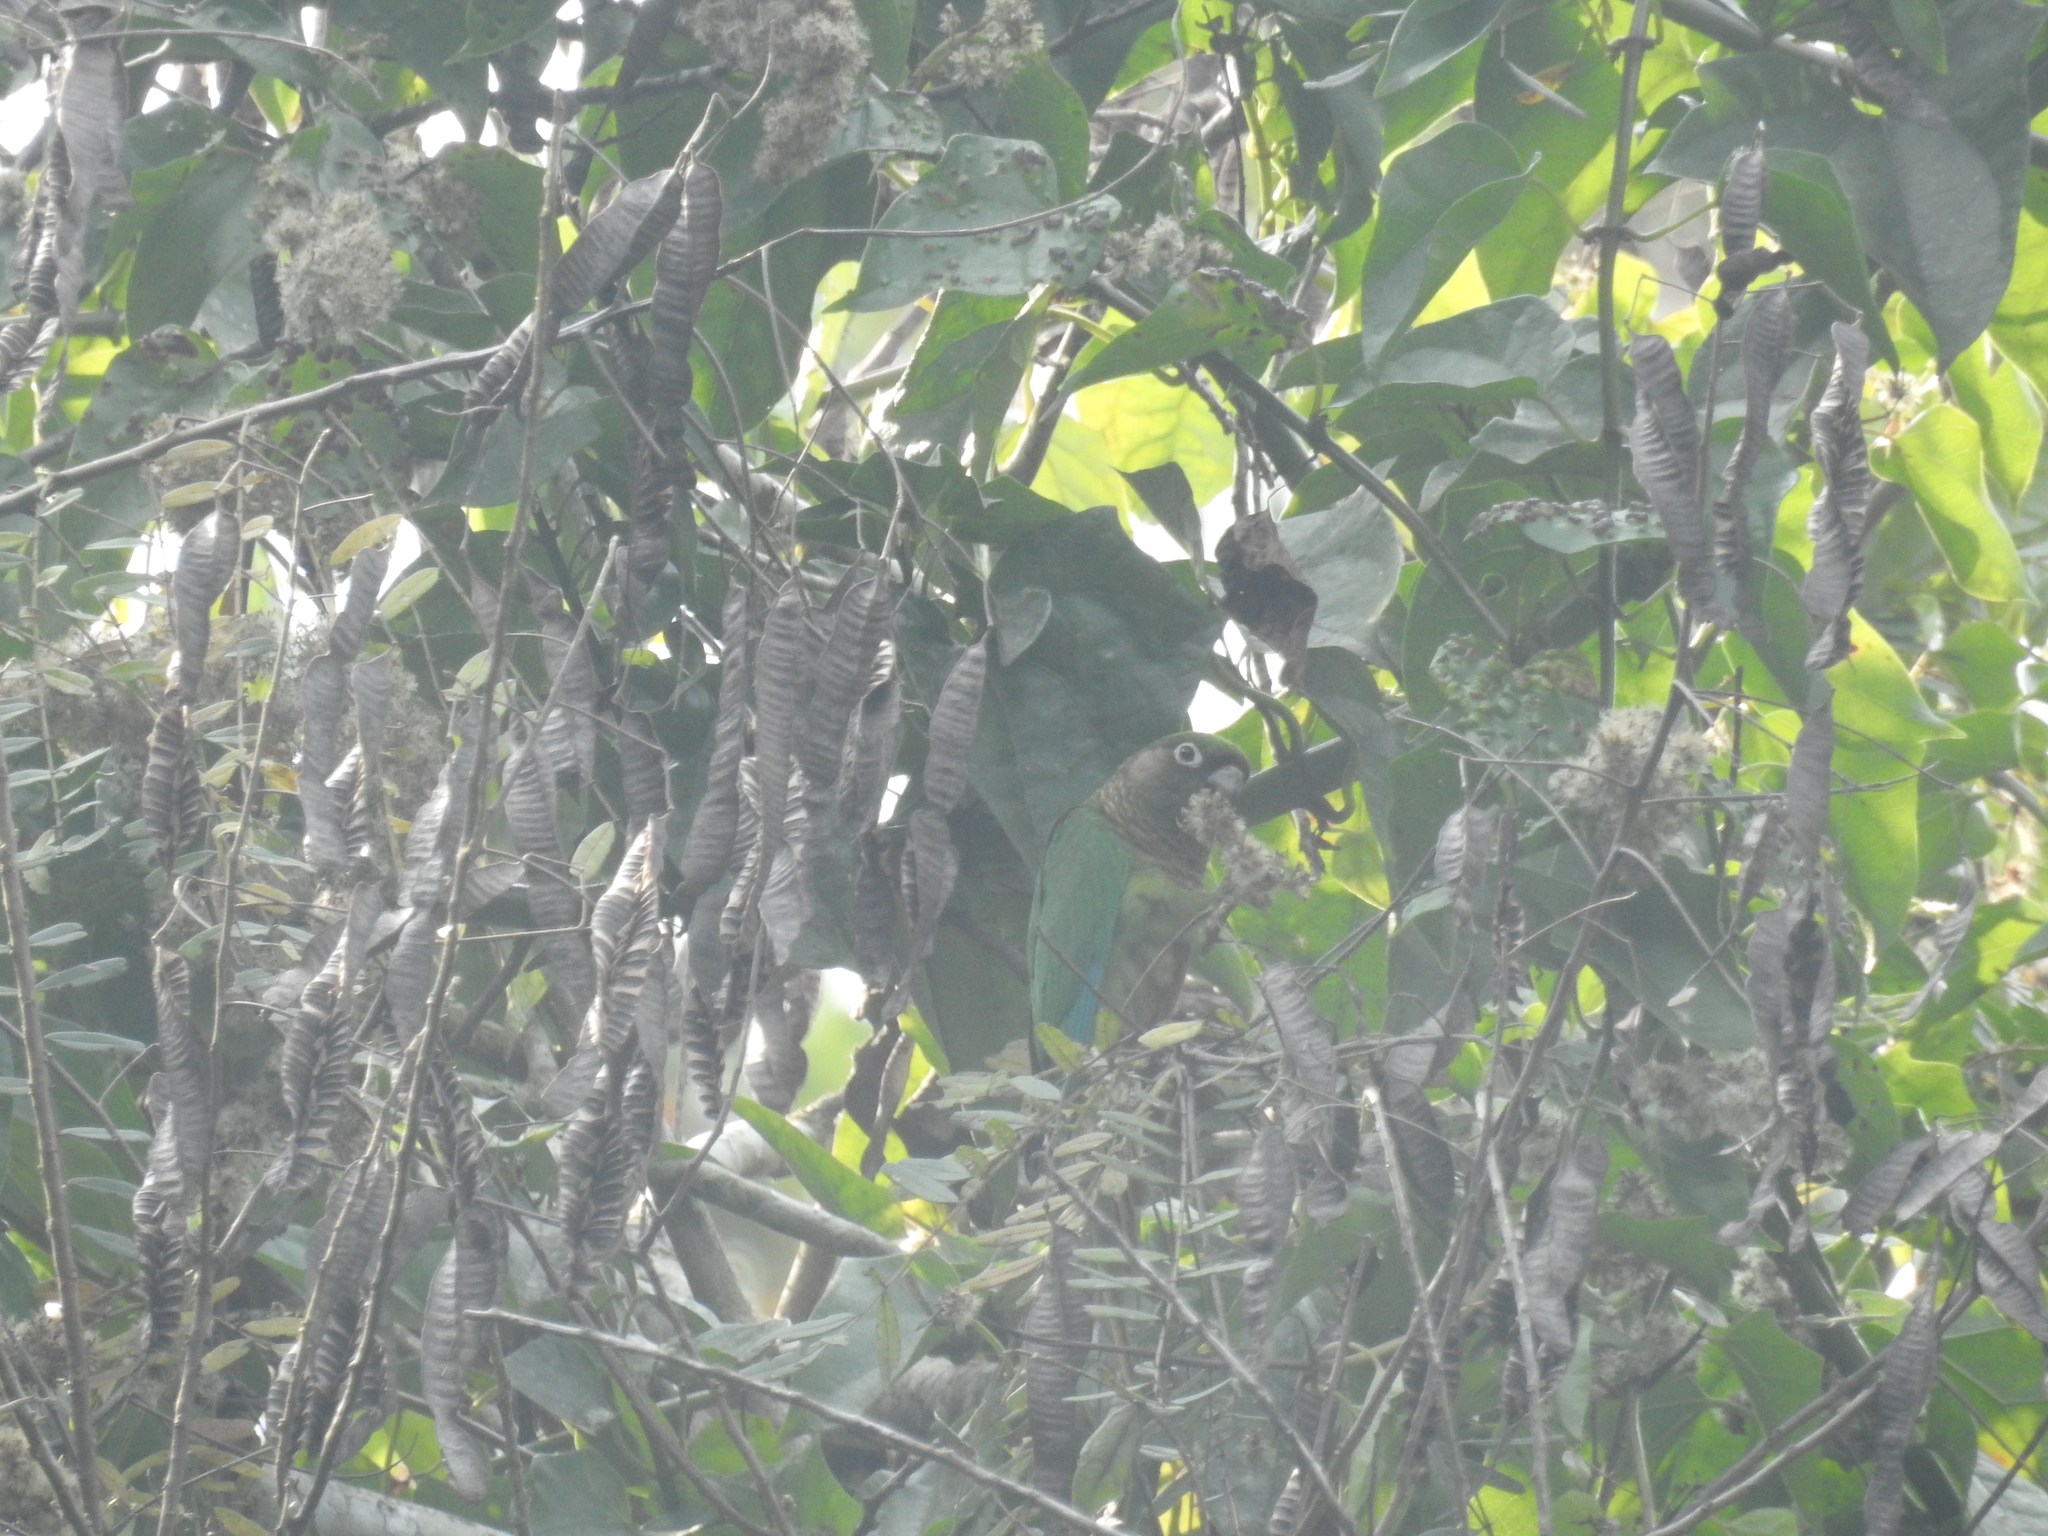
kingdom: Animalia
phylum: Chordata
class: Aves
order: Psittaciformes
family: Psittacidae
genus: Pyrrhura
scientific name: Pyrrhura frontalis
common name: Maroon-bellied parakeet
